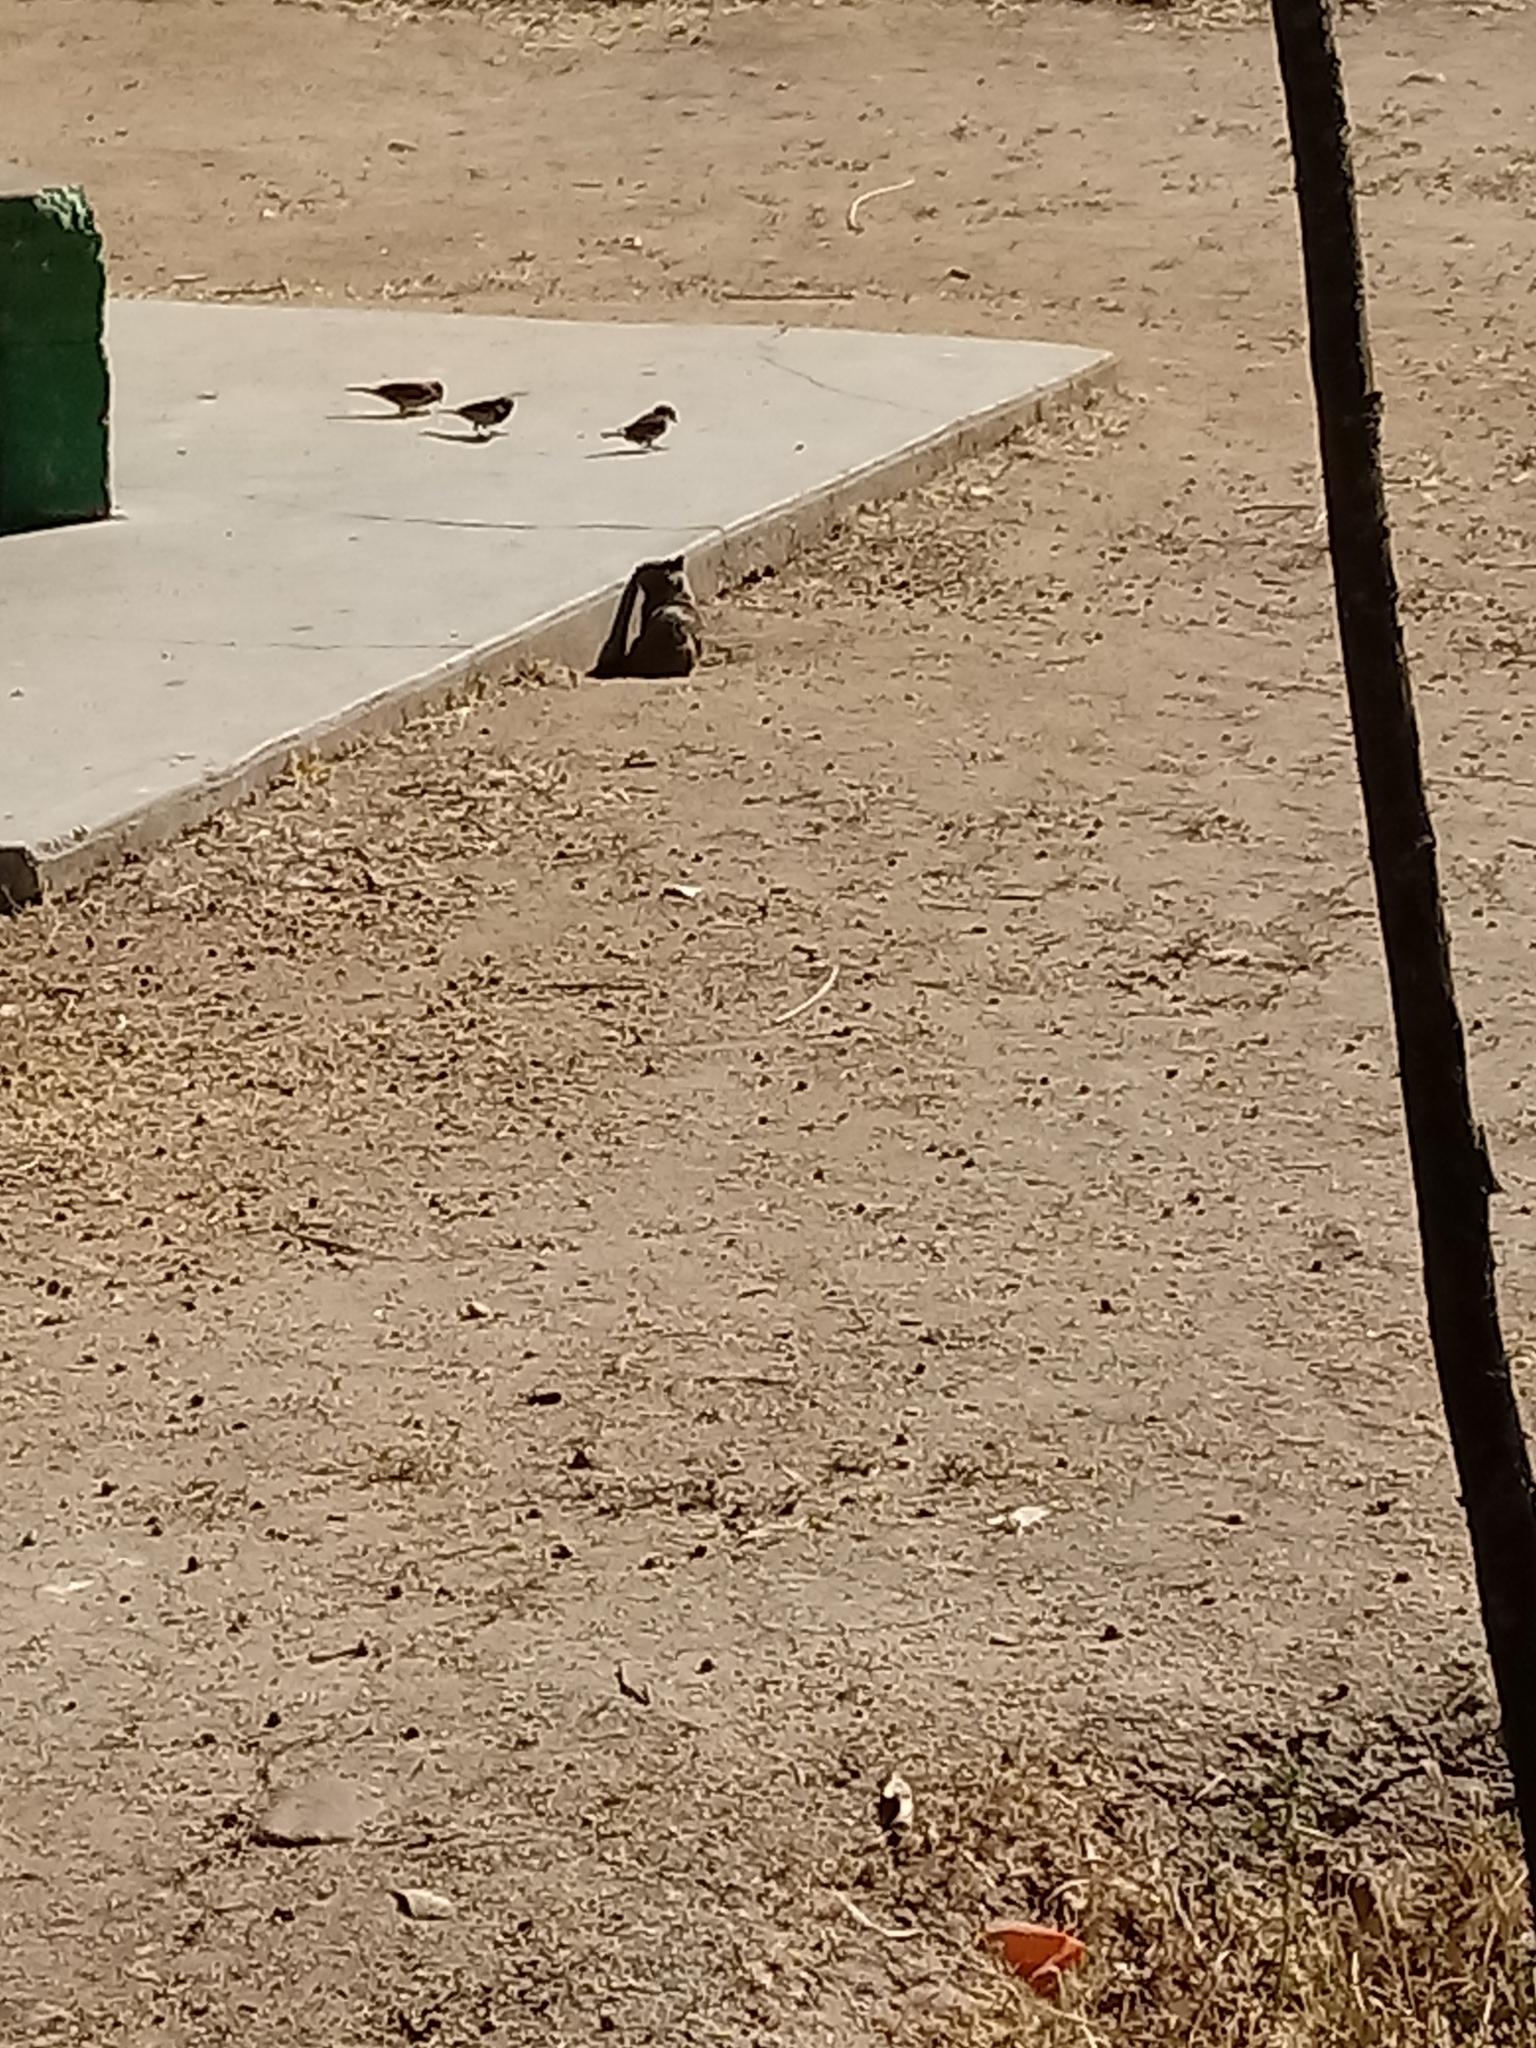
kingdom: Animalia
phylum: Chordata
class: Mammalia
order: Rodentia
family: Sciuridae
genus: Otospermophilus
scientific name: Otospermophilus beecheyi
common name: California ground squirrel
